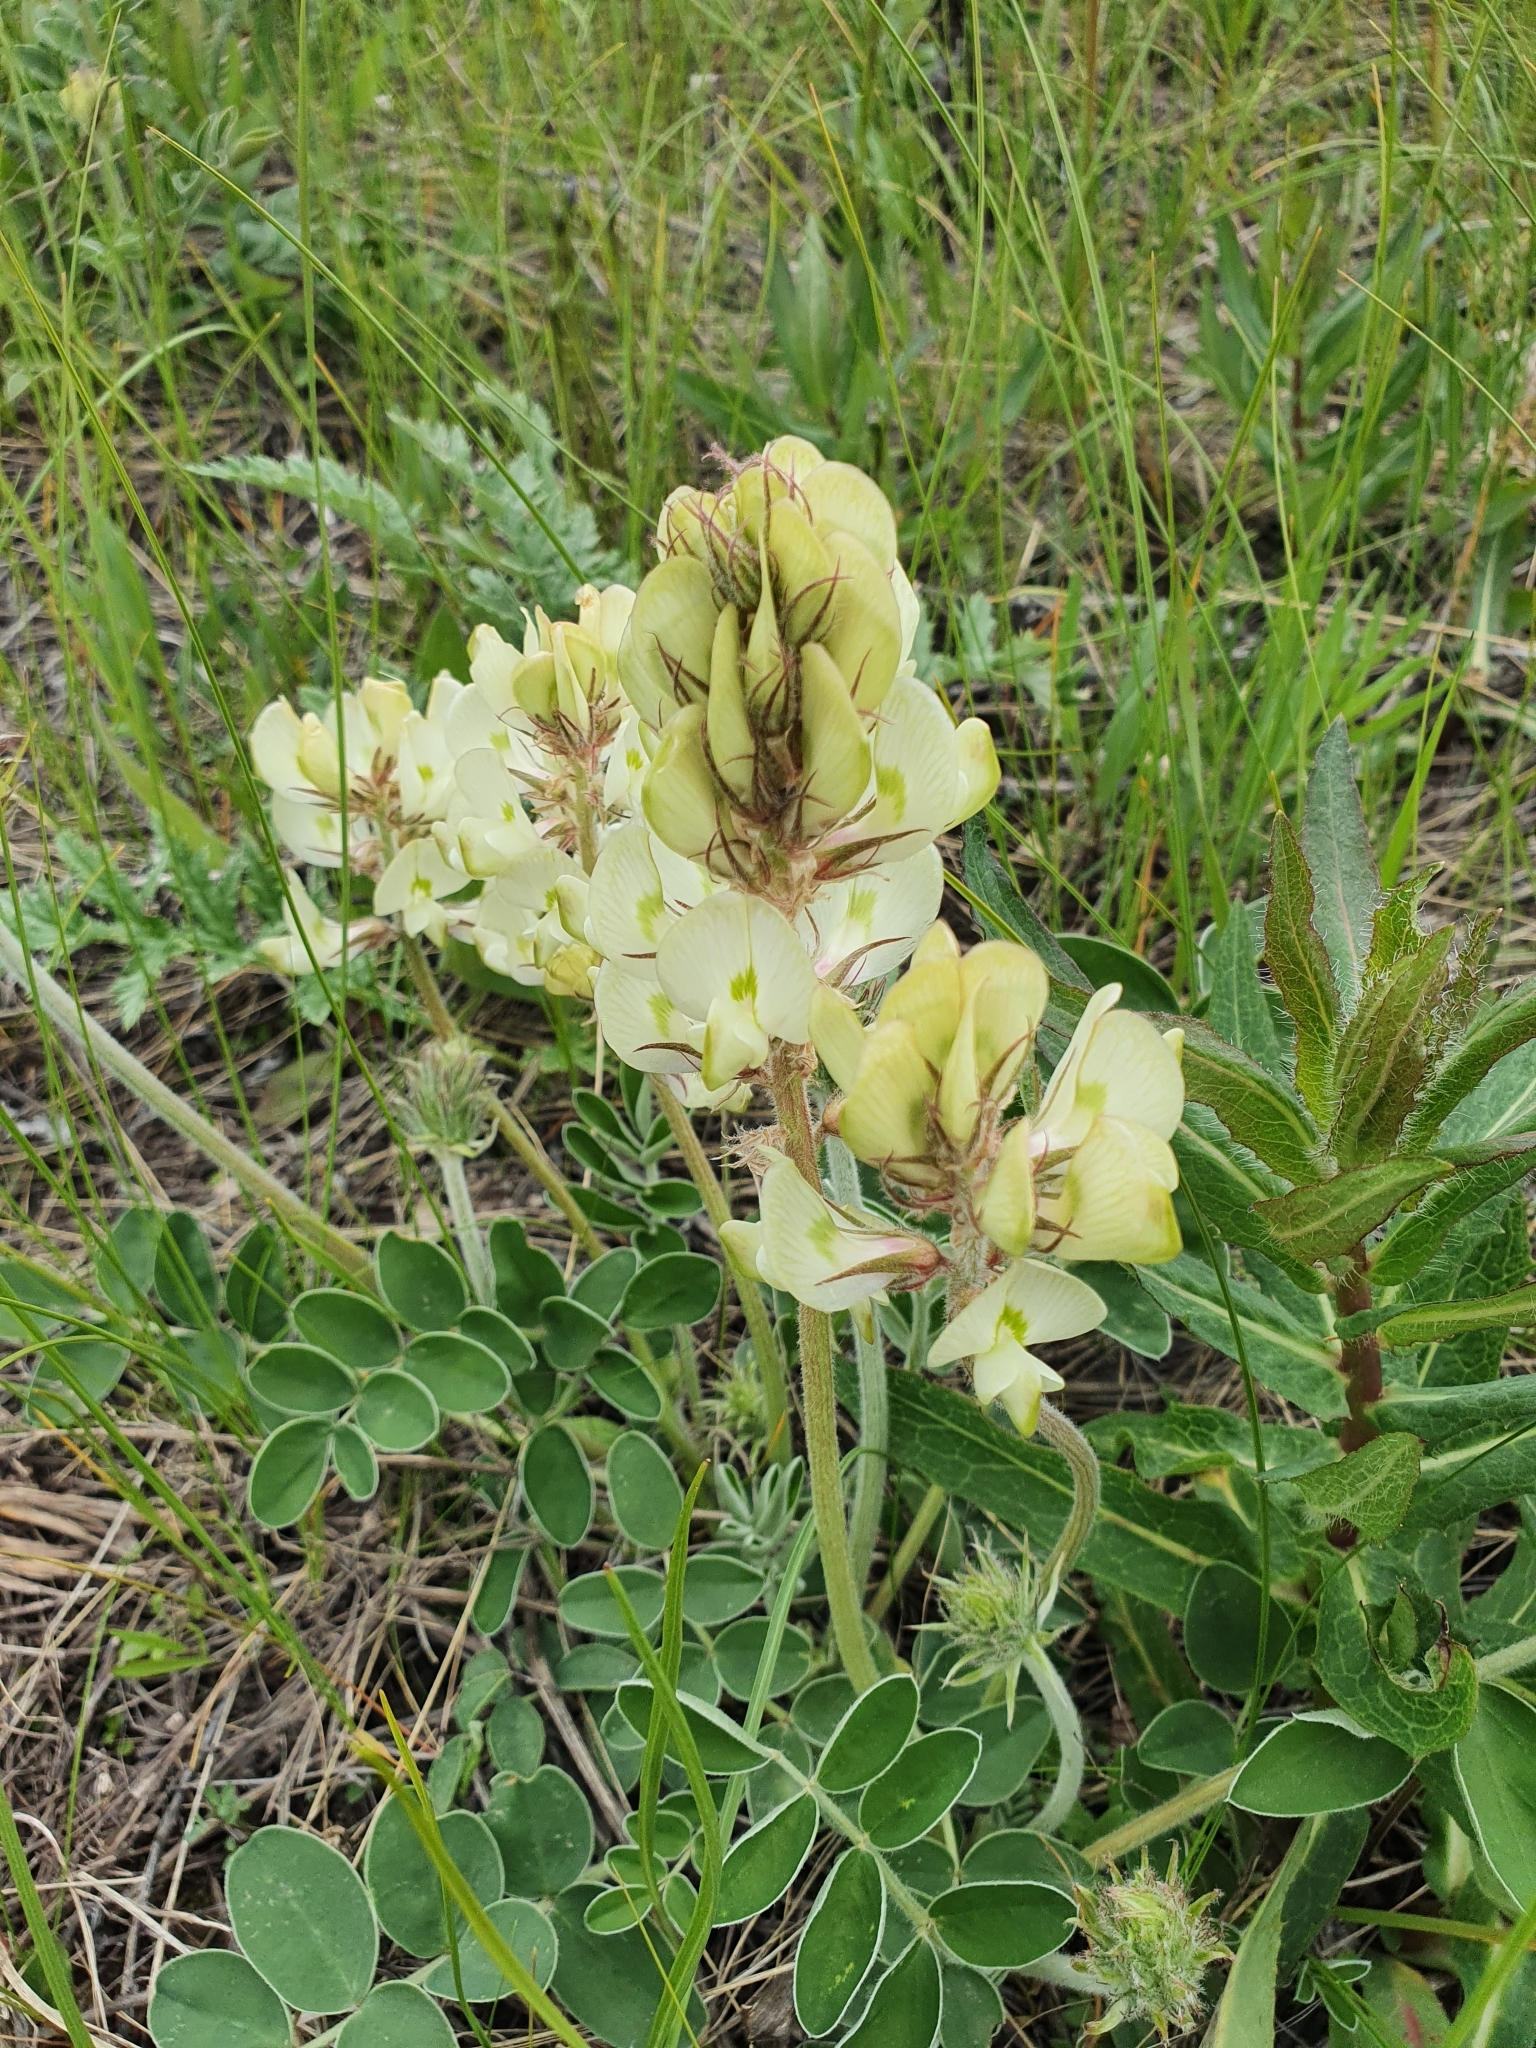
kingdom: Plantae
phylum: Tracheophyta
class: Magnoliopsida
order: Fabales
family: Fabaceae
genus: Hedysarum
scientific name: Hedysarum grandiflorum
